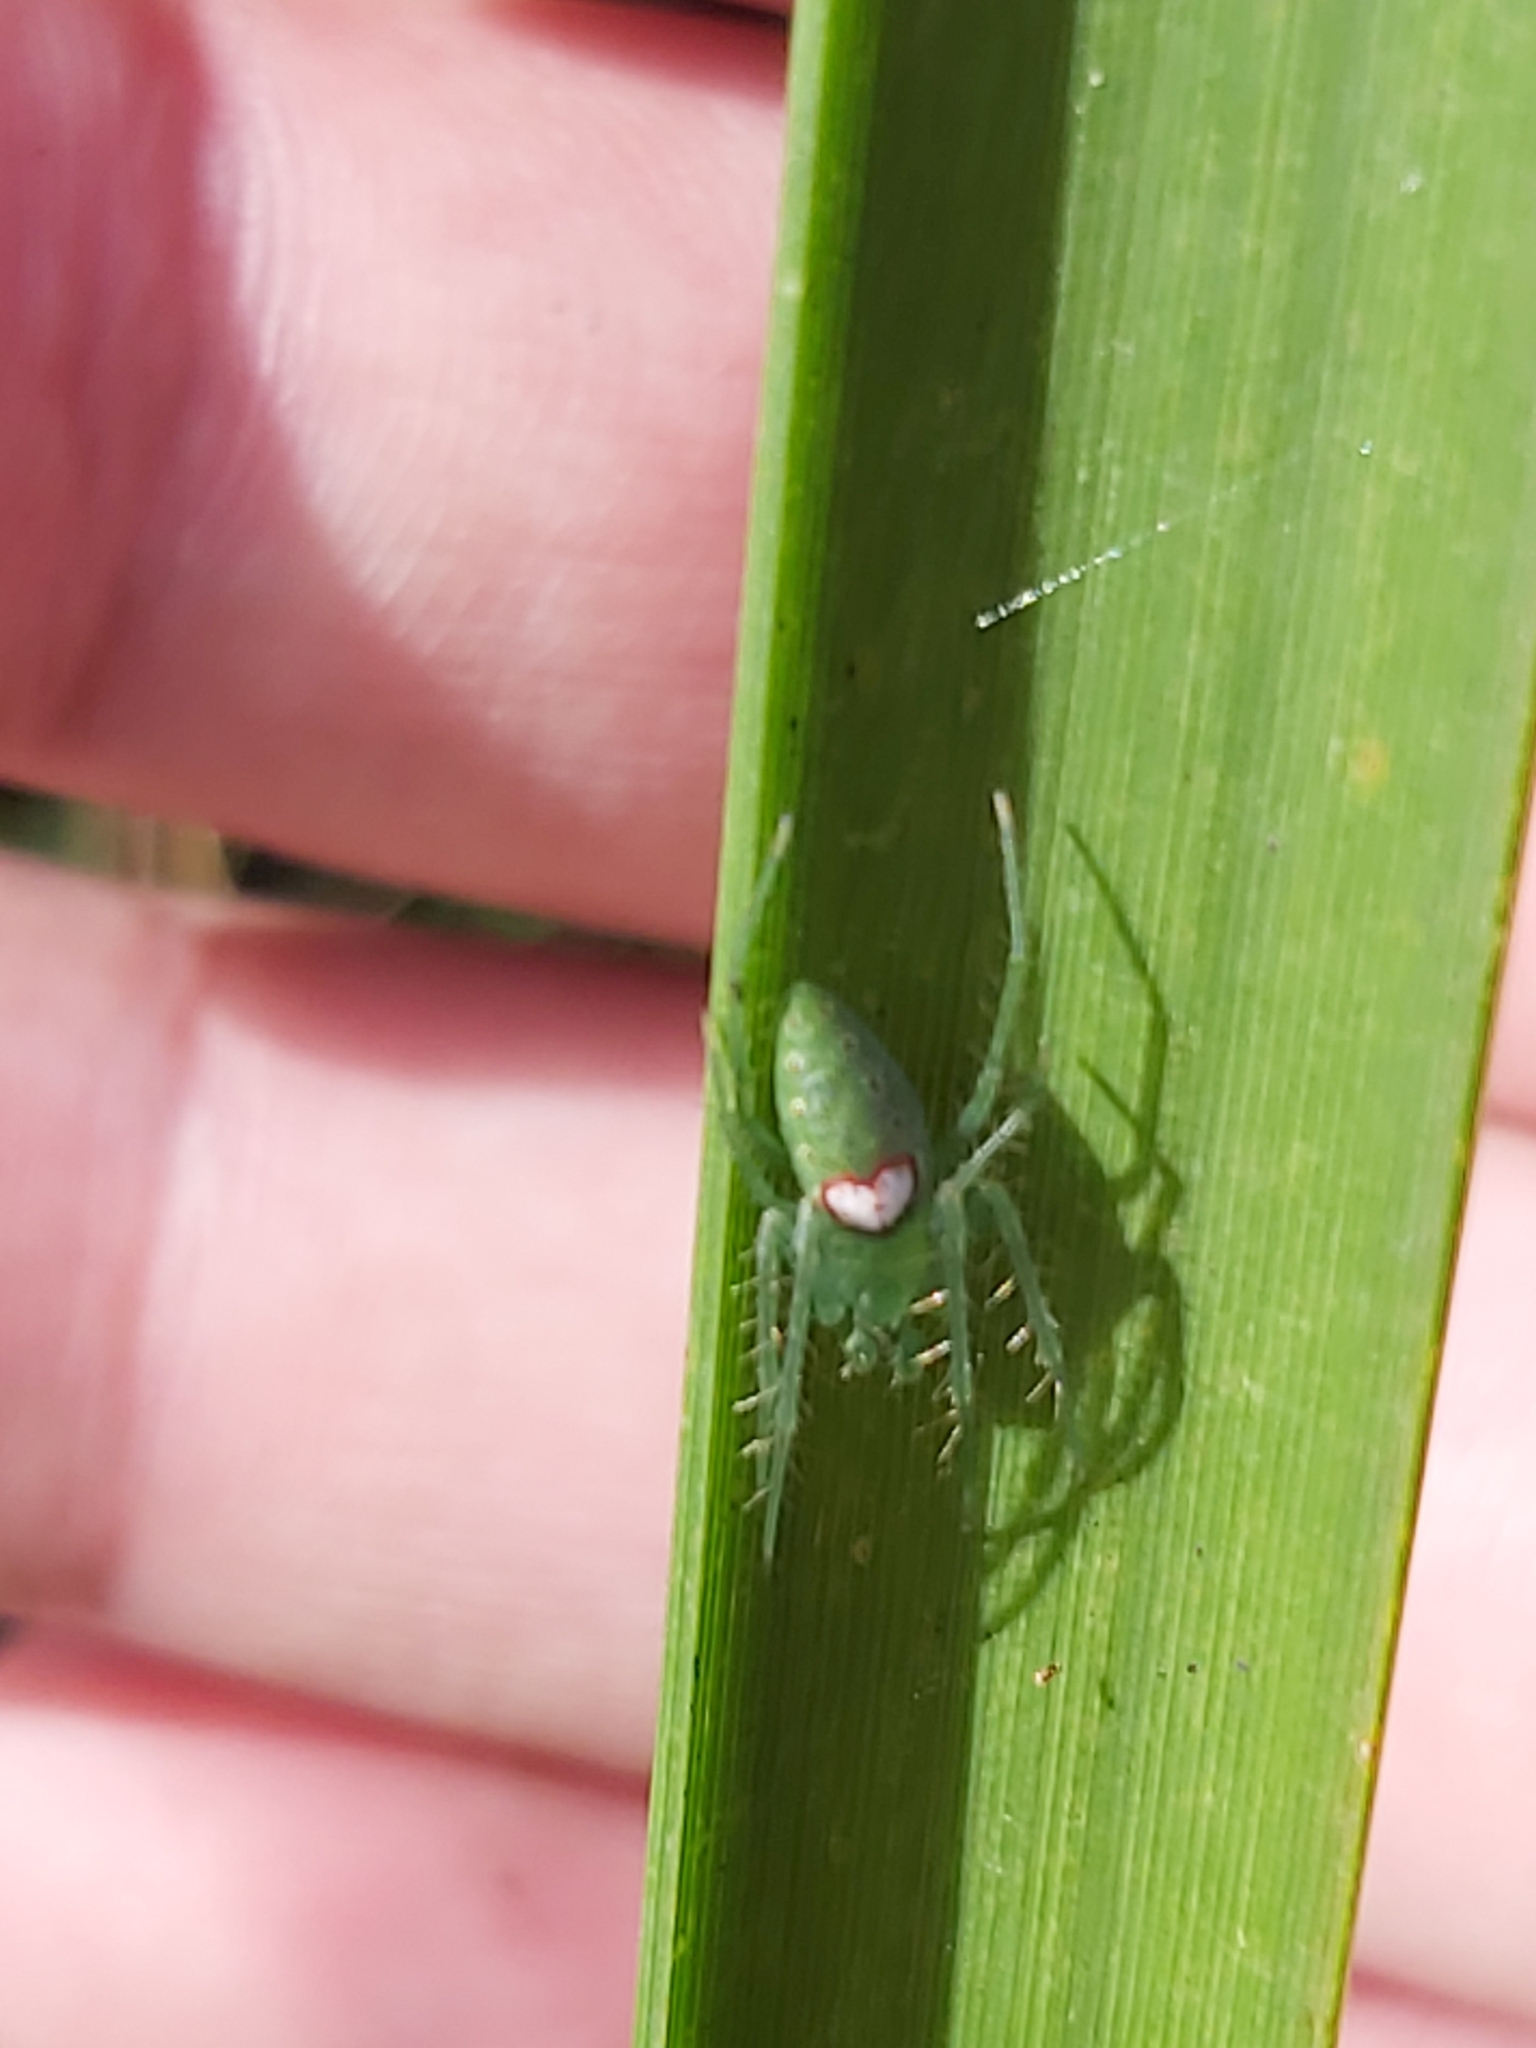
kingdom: Animalia
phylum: Arthropoda
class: Arachnida
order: Araneae
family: Araneidae
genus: Araneus
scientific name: Araneus talipedatus
